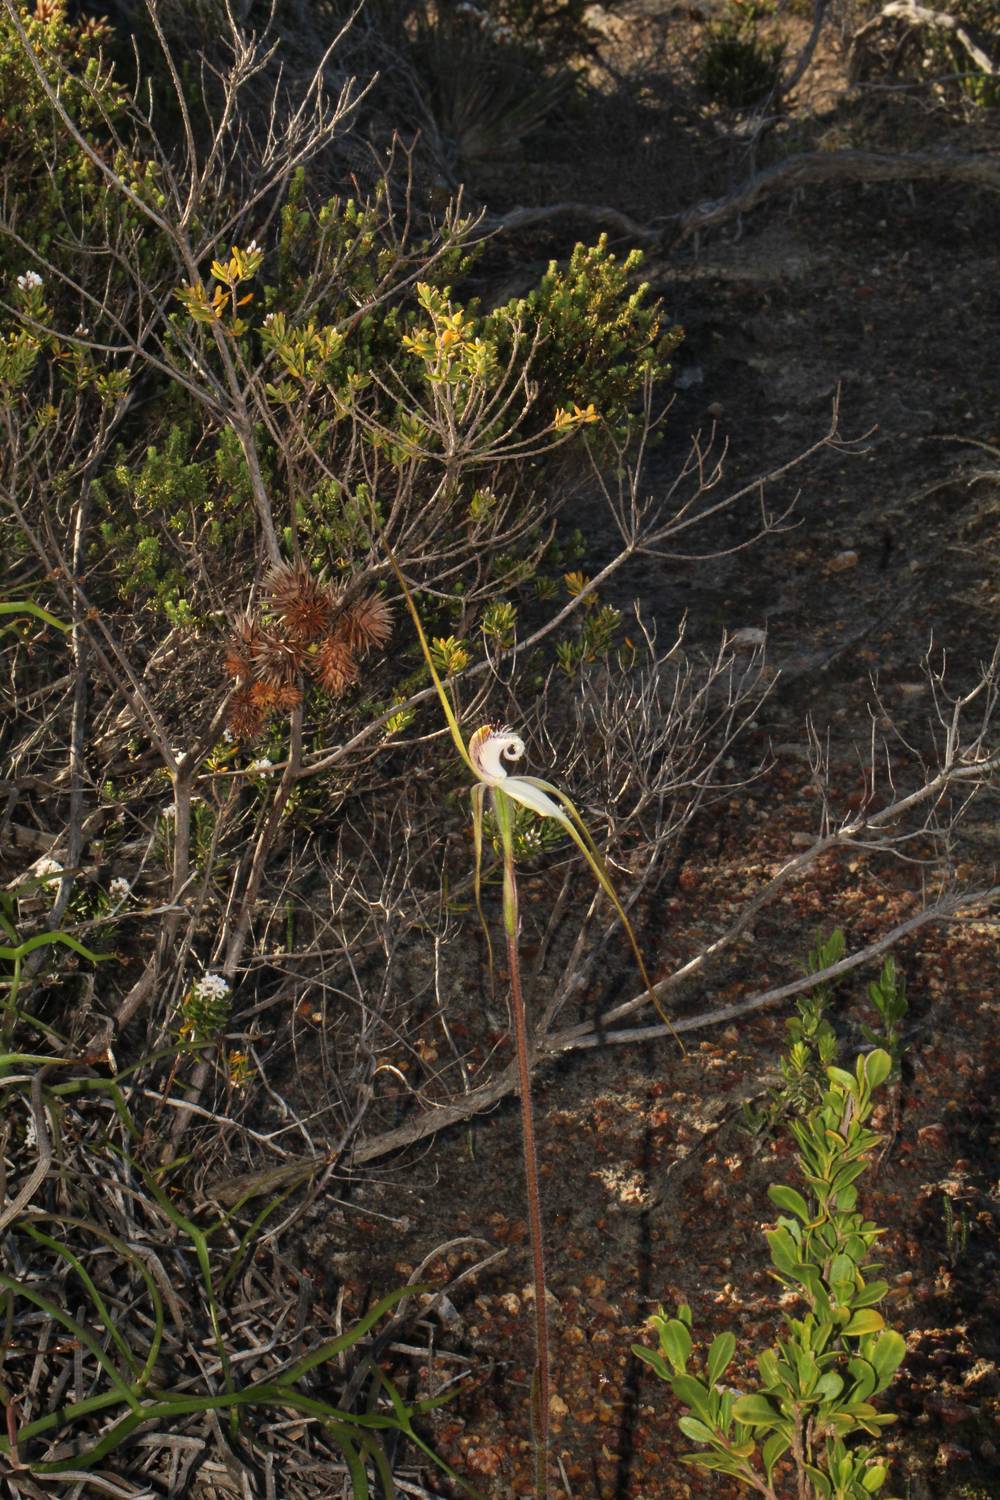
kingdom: Plantae
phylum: Tracheophyta
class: Liliopsida
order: Asparagales
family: Orchidaceae
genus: Caladenia
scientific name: Caladenia longicauda
